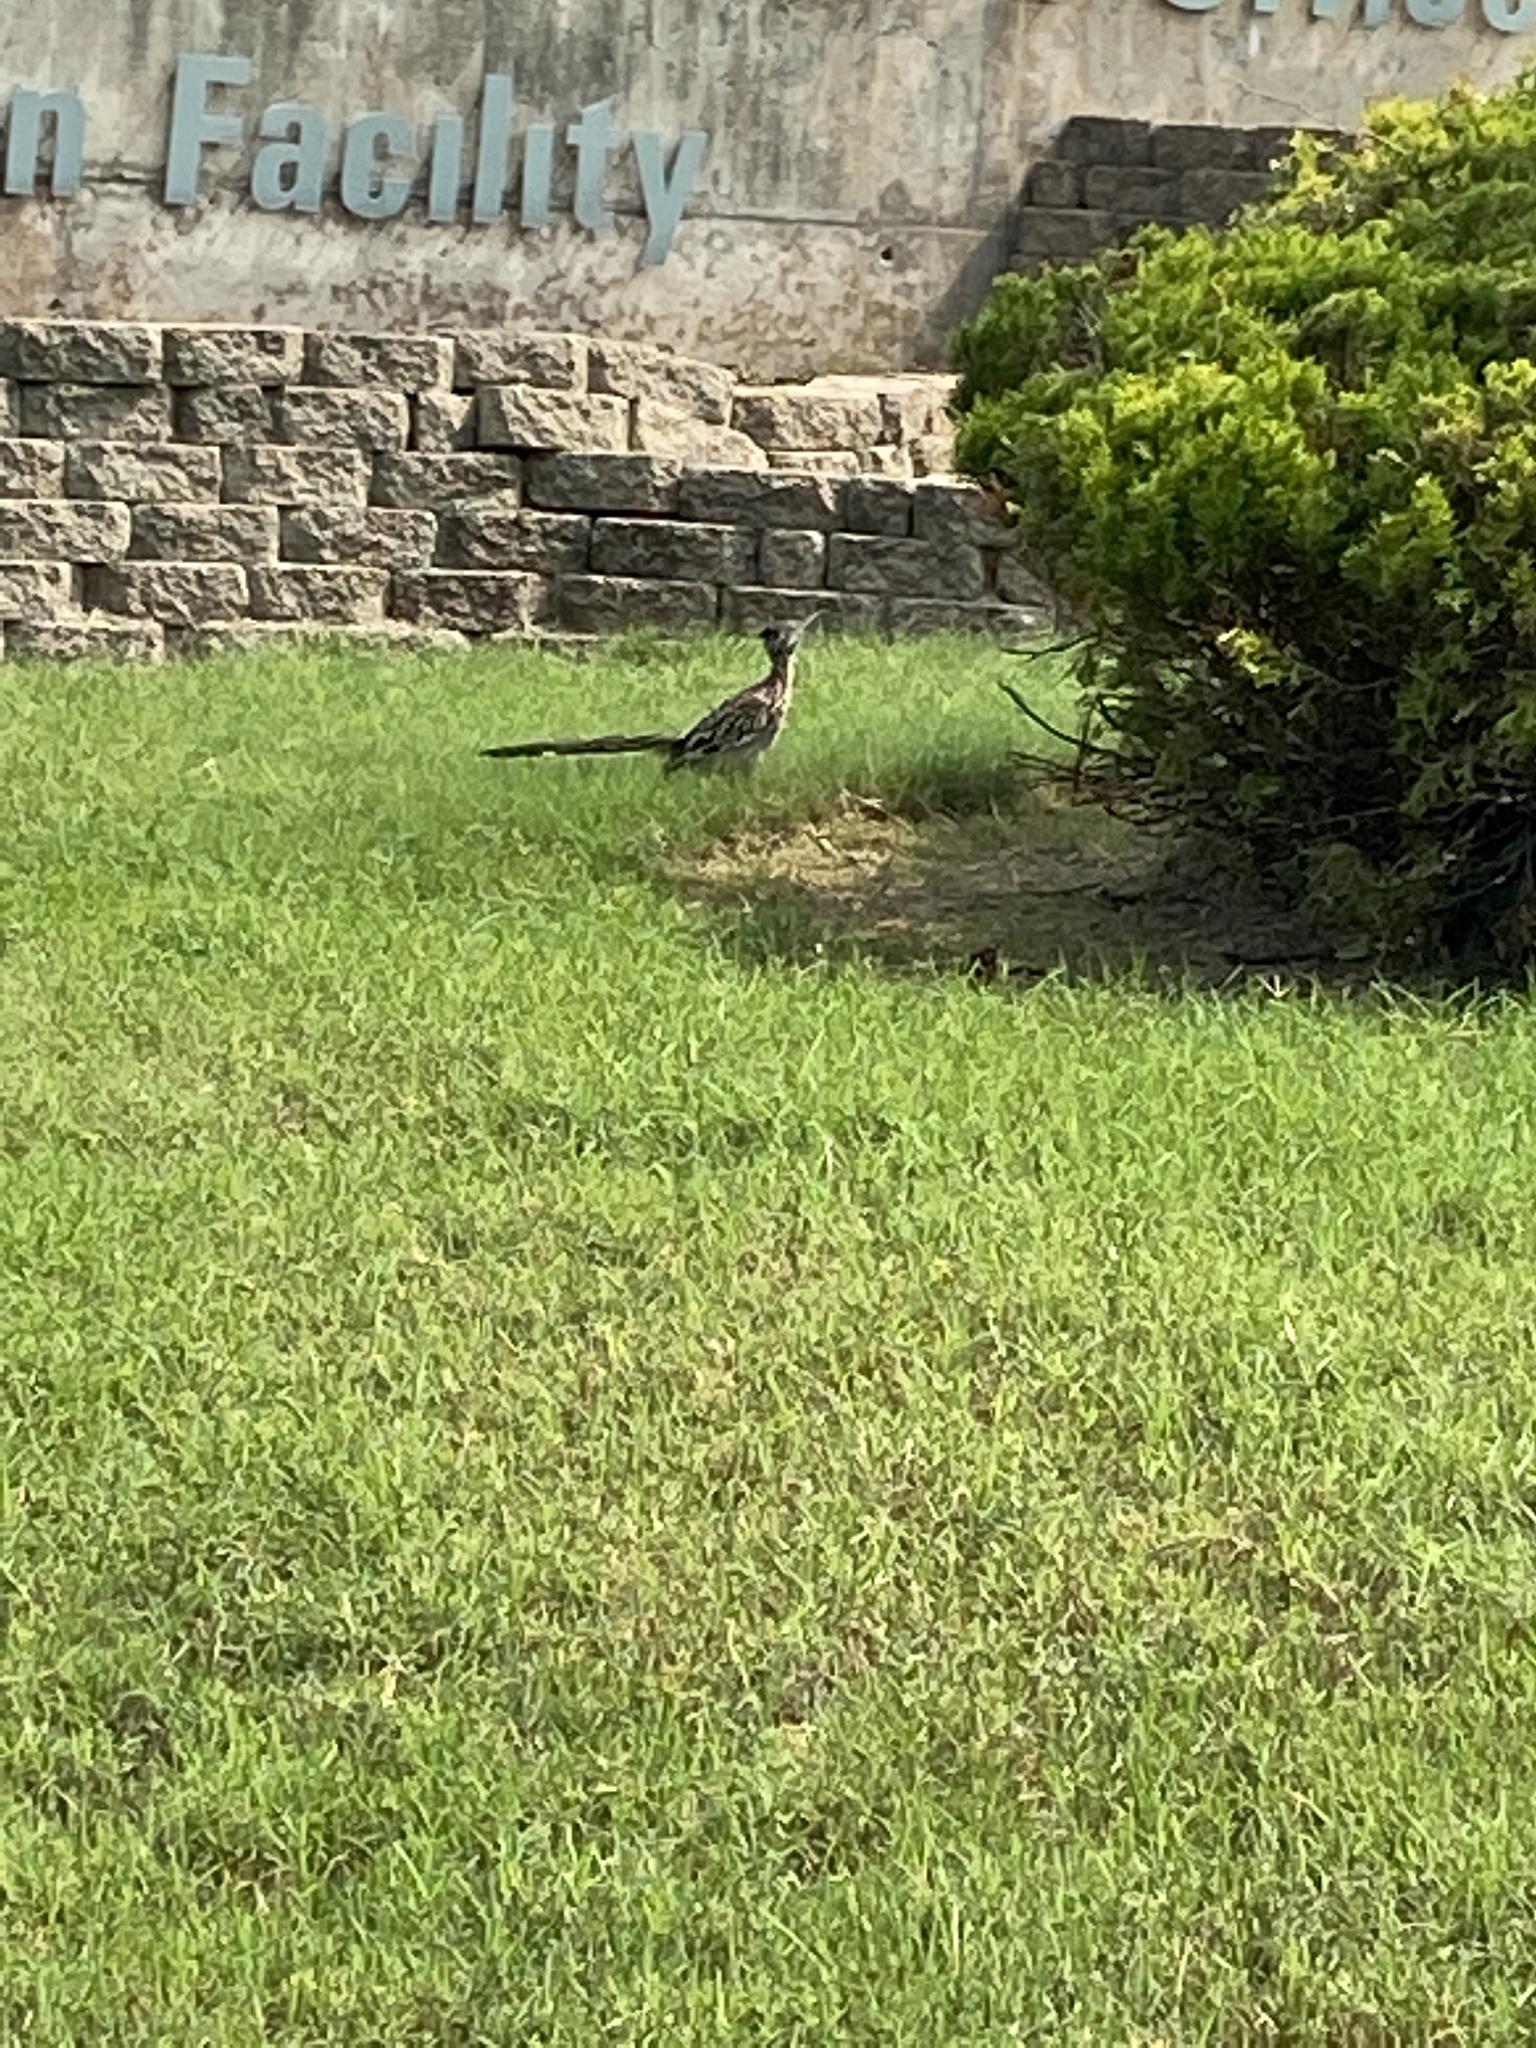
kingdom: Animalia
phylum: Chordata
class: Aves
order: Cuculiformes
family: Cuculidae
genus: Geococcyx
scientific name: Geococcyx californianus
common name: Greater roadrunner
